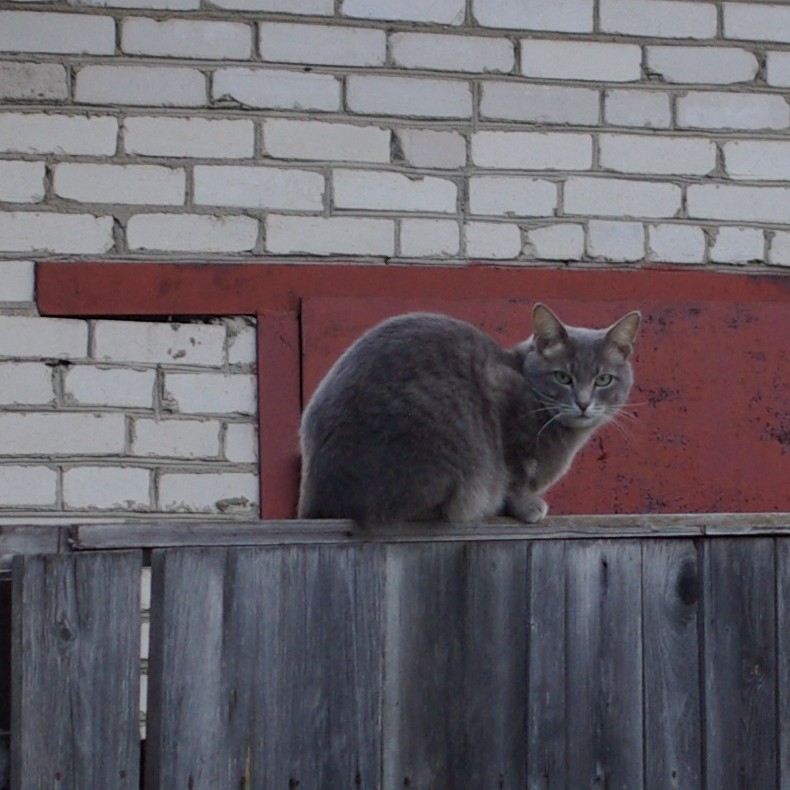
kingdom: Animalia
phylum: Chordata
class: Mammalia
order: Carnivora
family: Felidae
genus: Felis
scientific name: Felis catus
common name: Domestic cat
